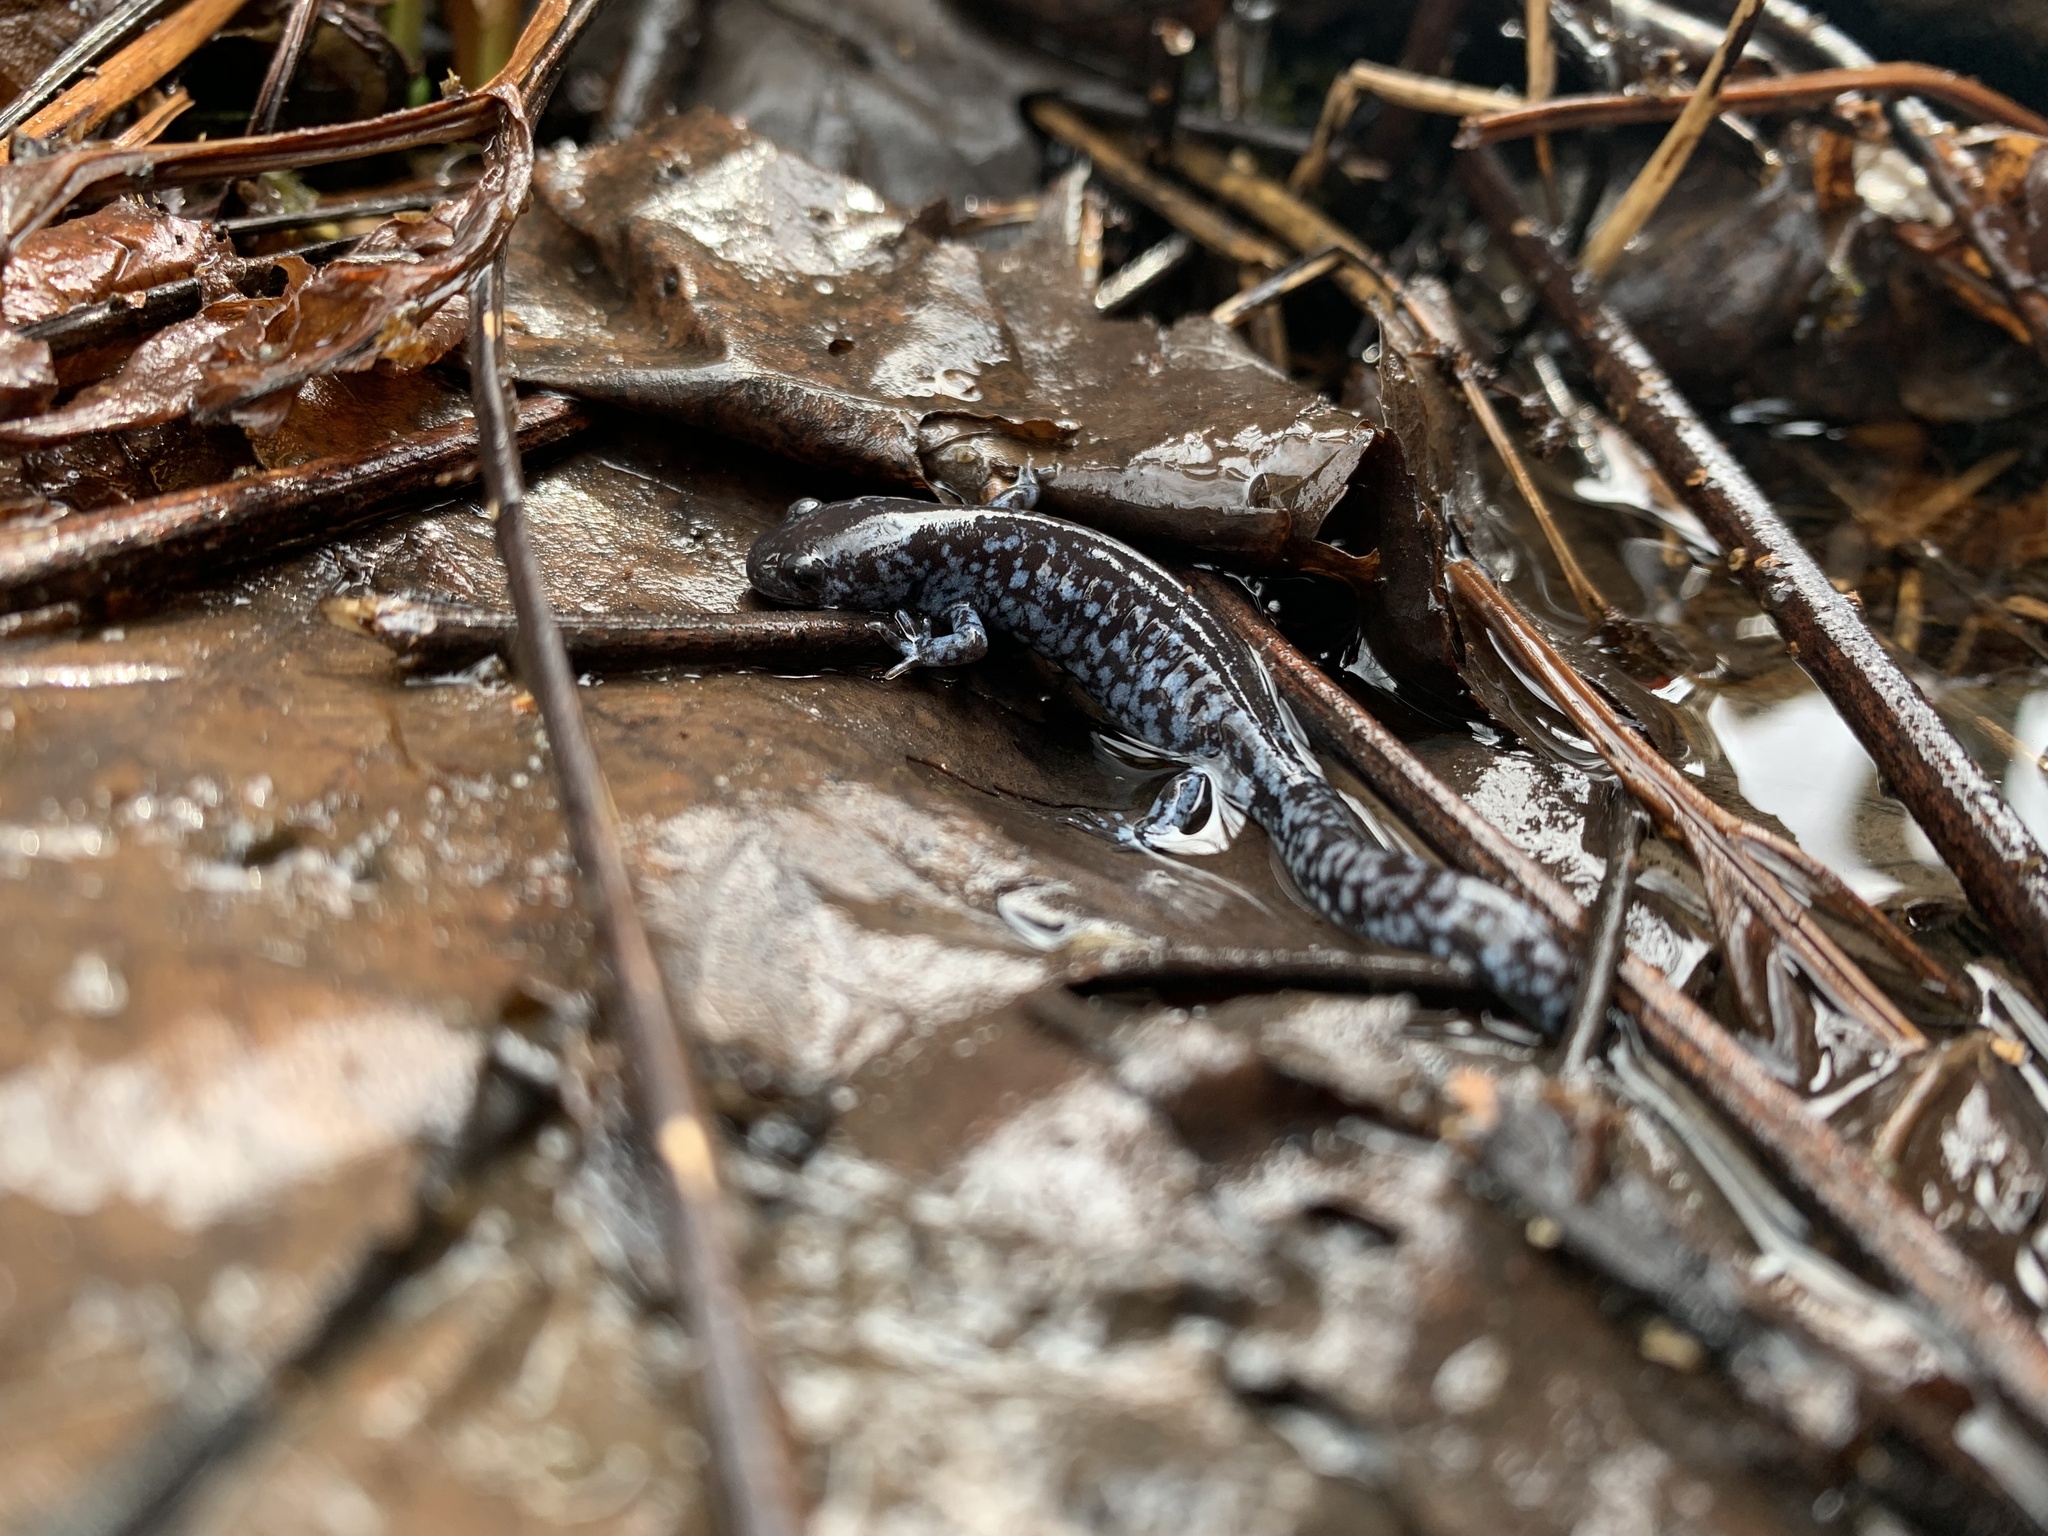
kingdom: Animalia
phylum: Chordata
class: Amphibia
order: Caudata
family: Ambystomatidae
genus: Ambystoma
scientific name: Ambystoma laterale
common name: Blue-spotted salamander
